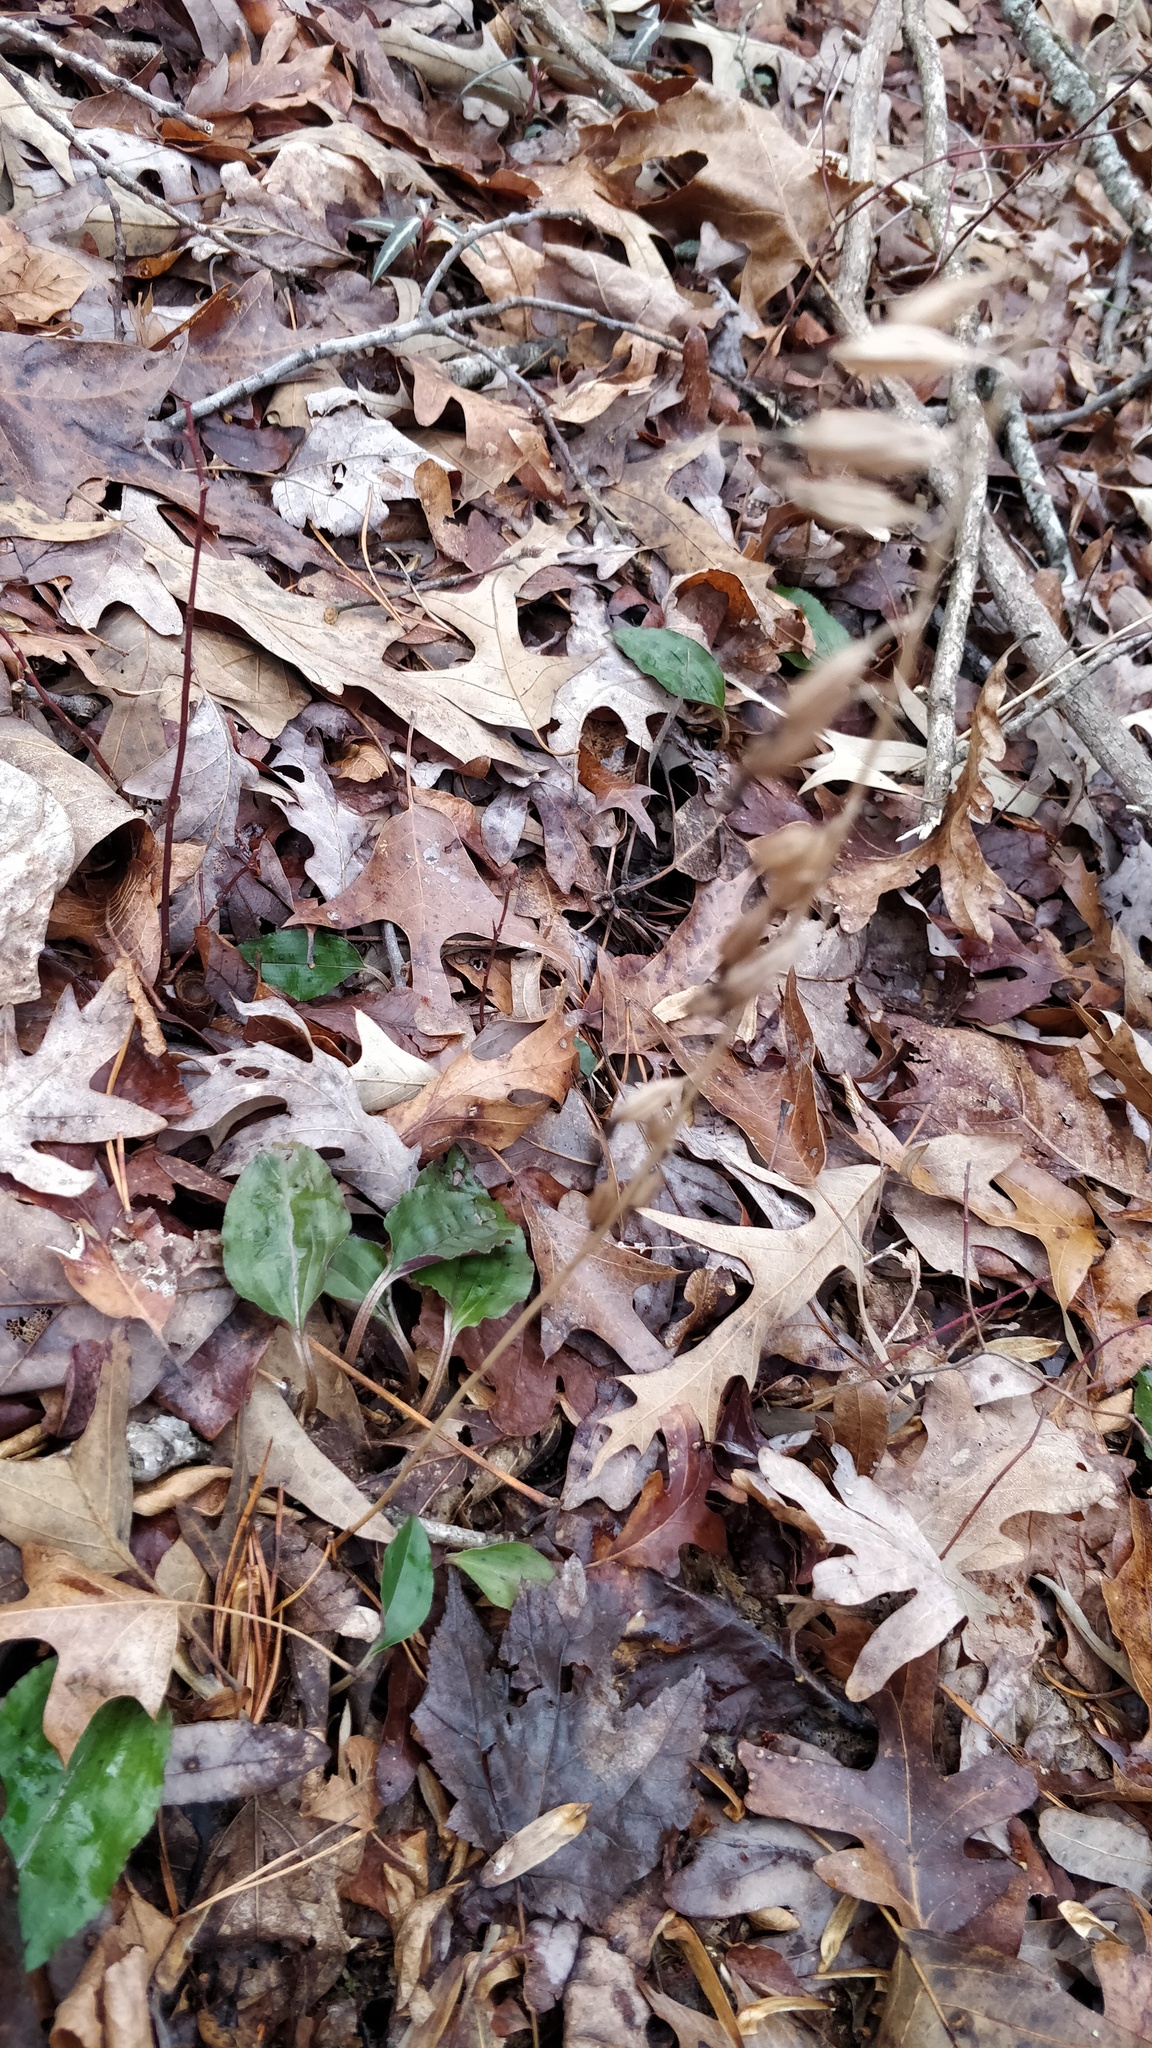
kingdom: Plantae
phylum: Tracheophyta
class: Liliopsida
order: Asparagales
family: Orchidaceae
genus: Tipularia
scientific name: Tipularia discolor
